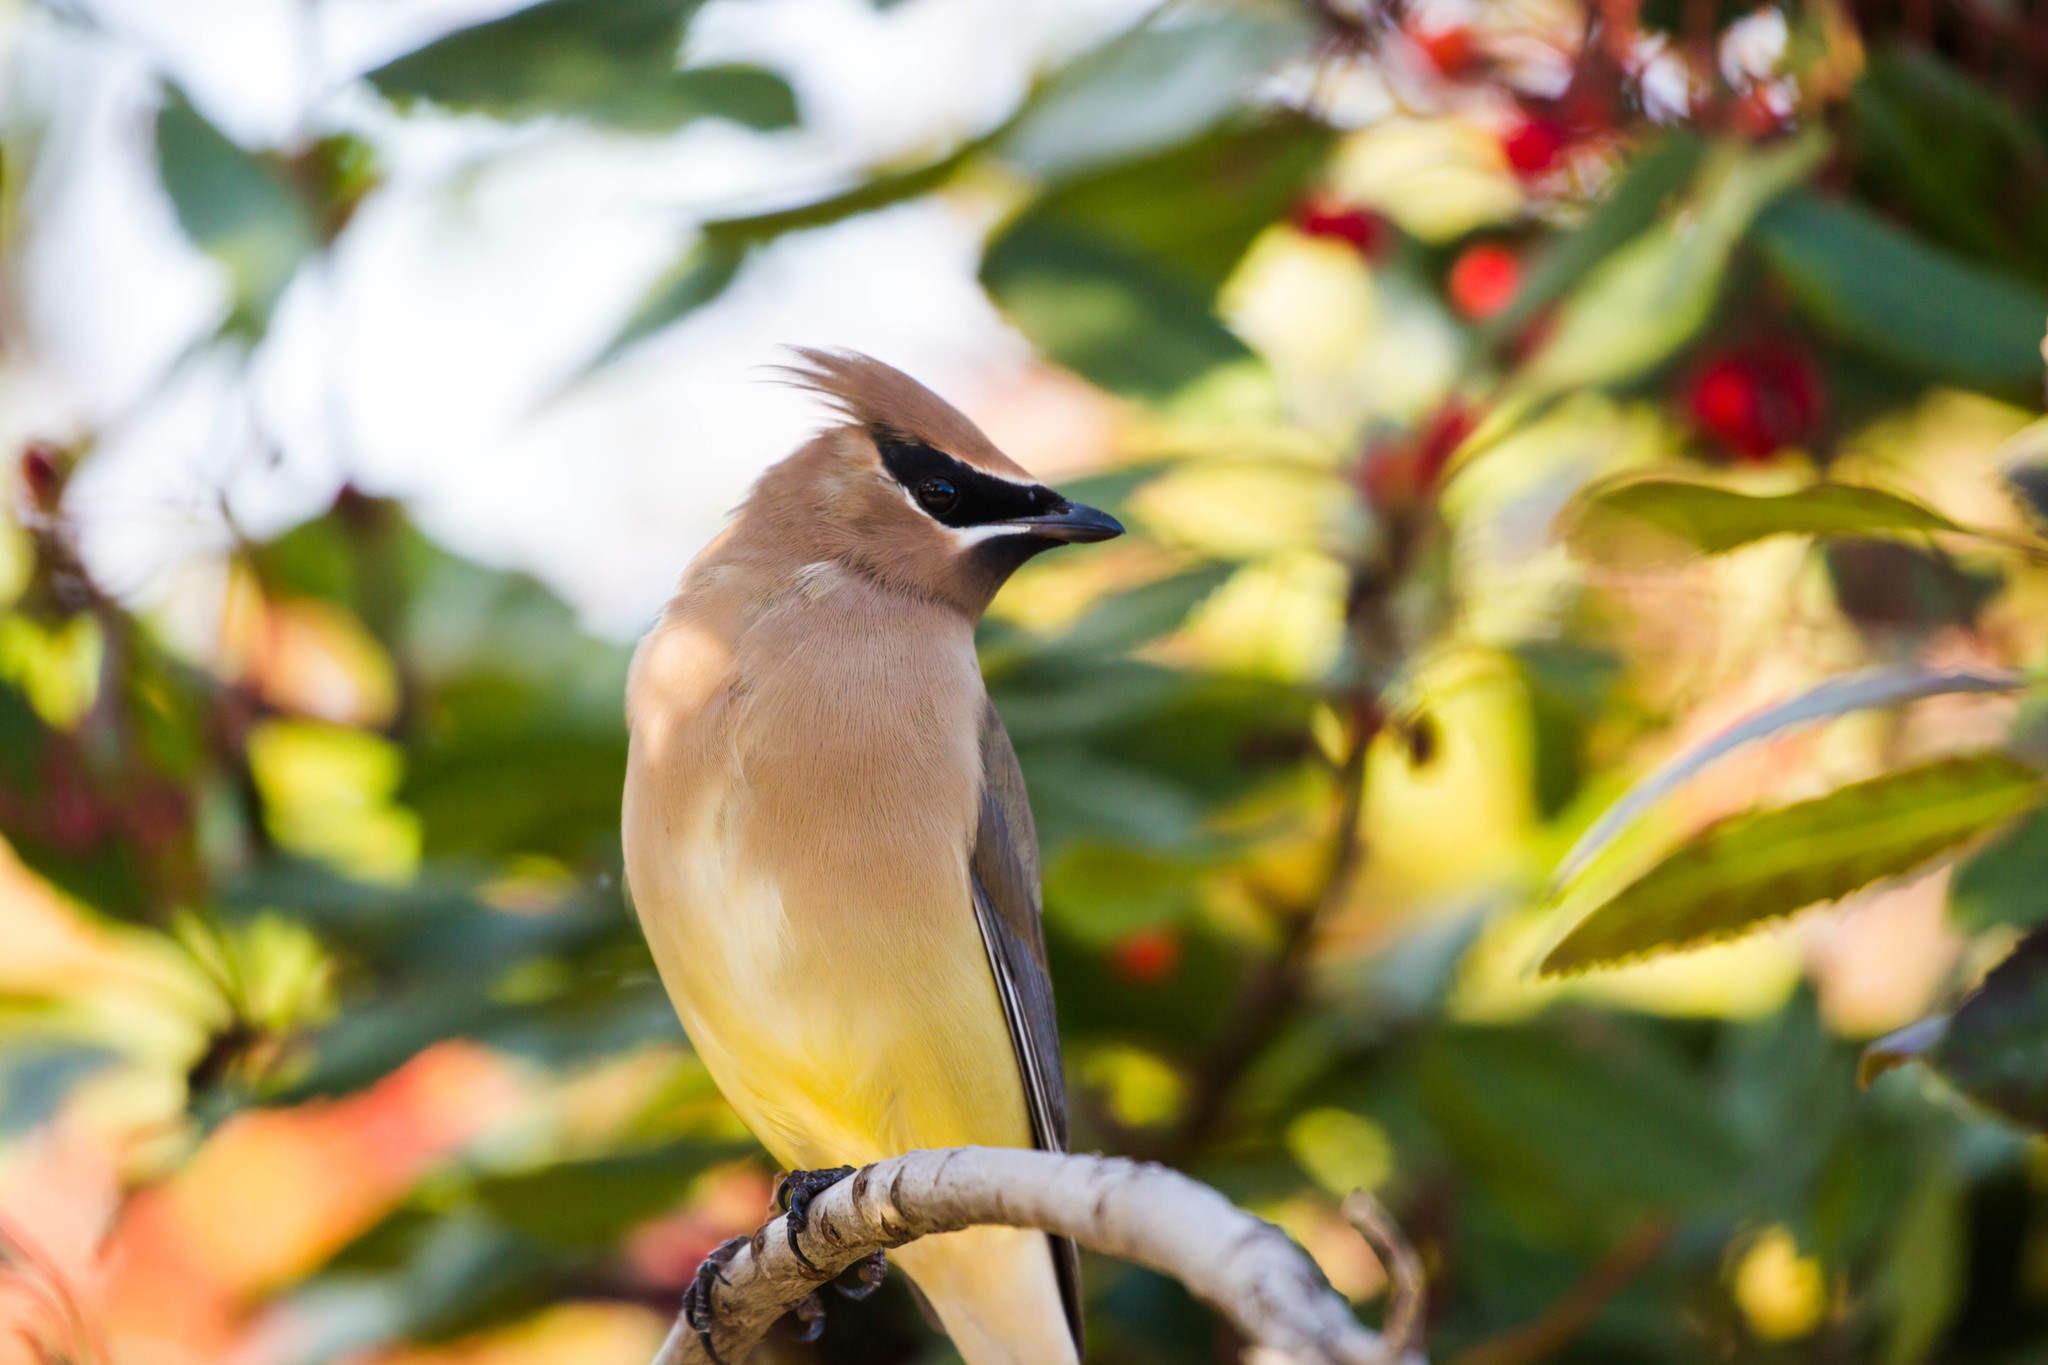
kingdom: Animalia
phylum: Chordata
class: Aves
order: Passeriformes
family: Bombycillidae
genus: Bombycilla
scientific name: Bombycilla cedrorum
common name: Cedar waxwing
